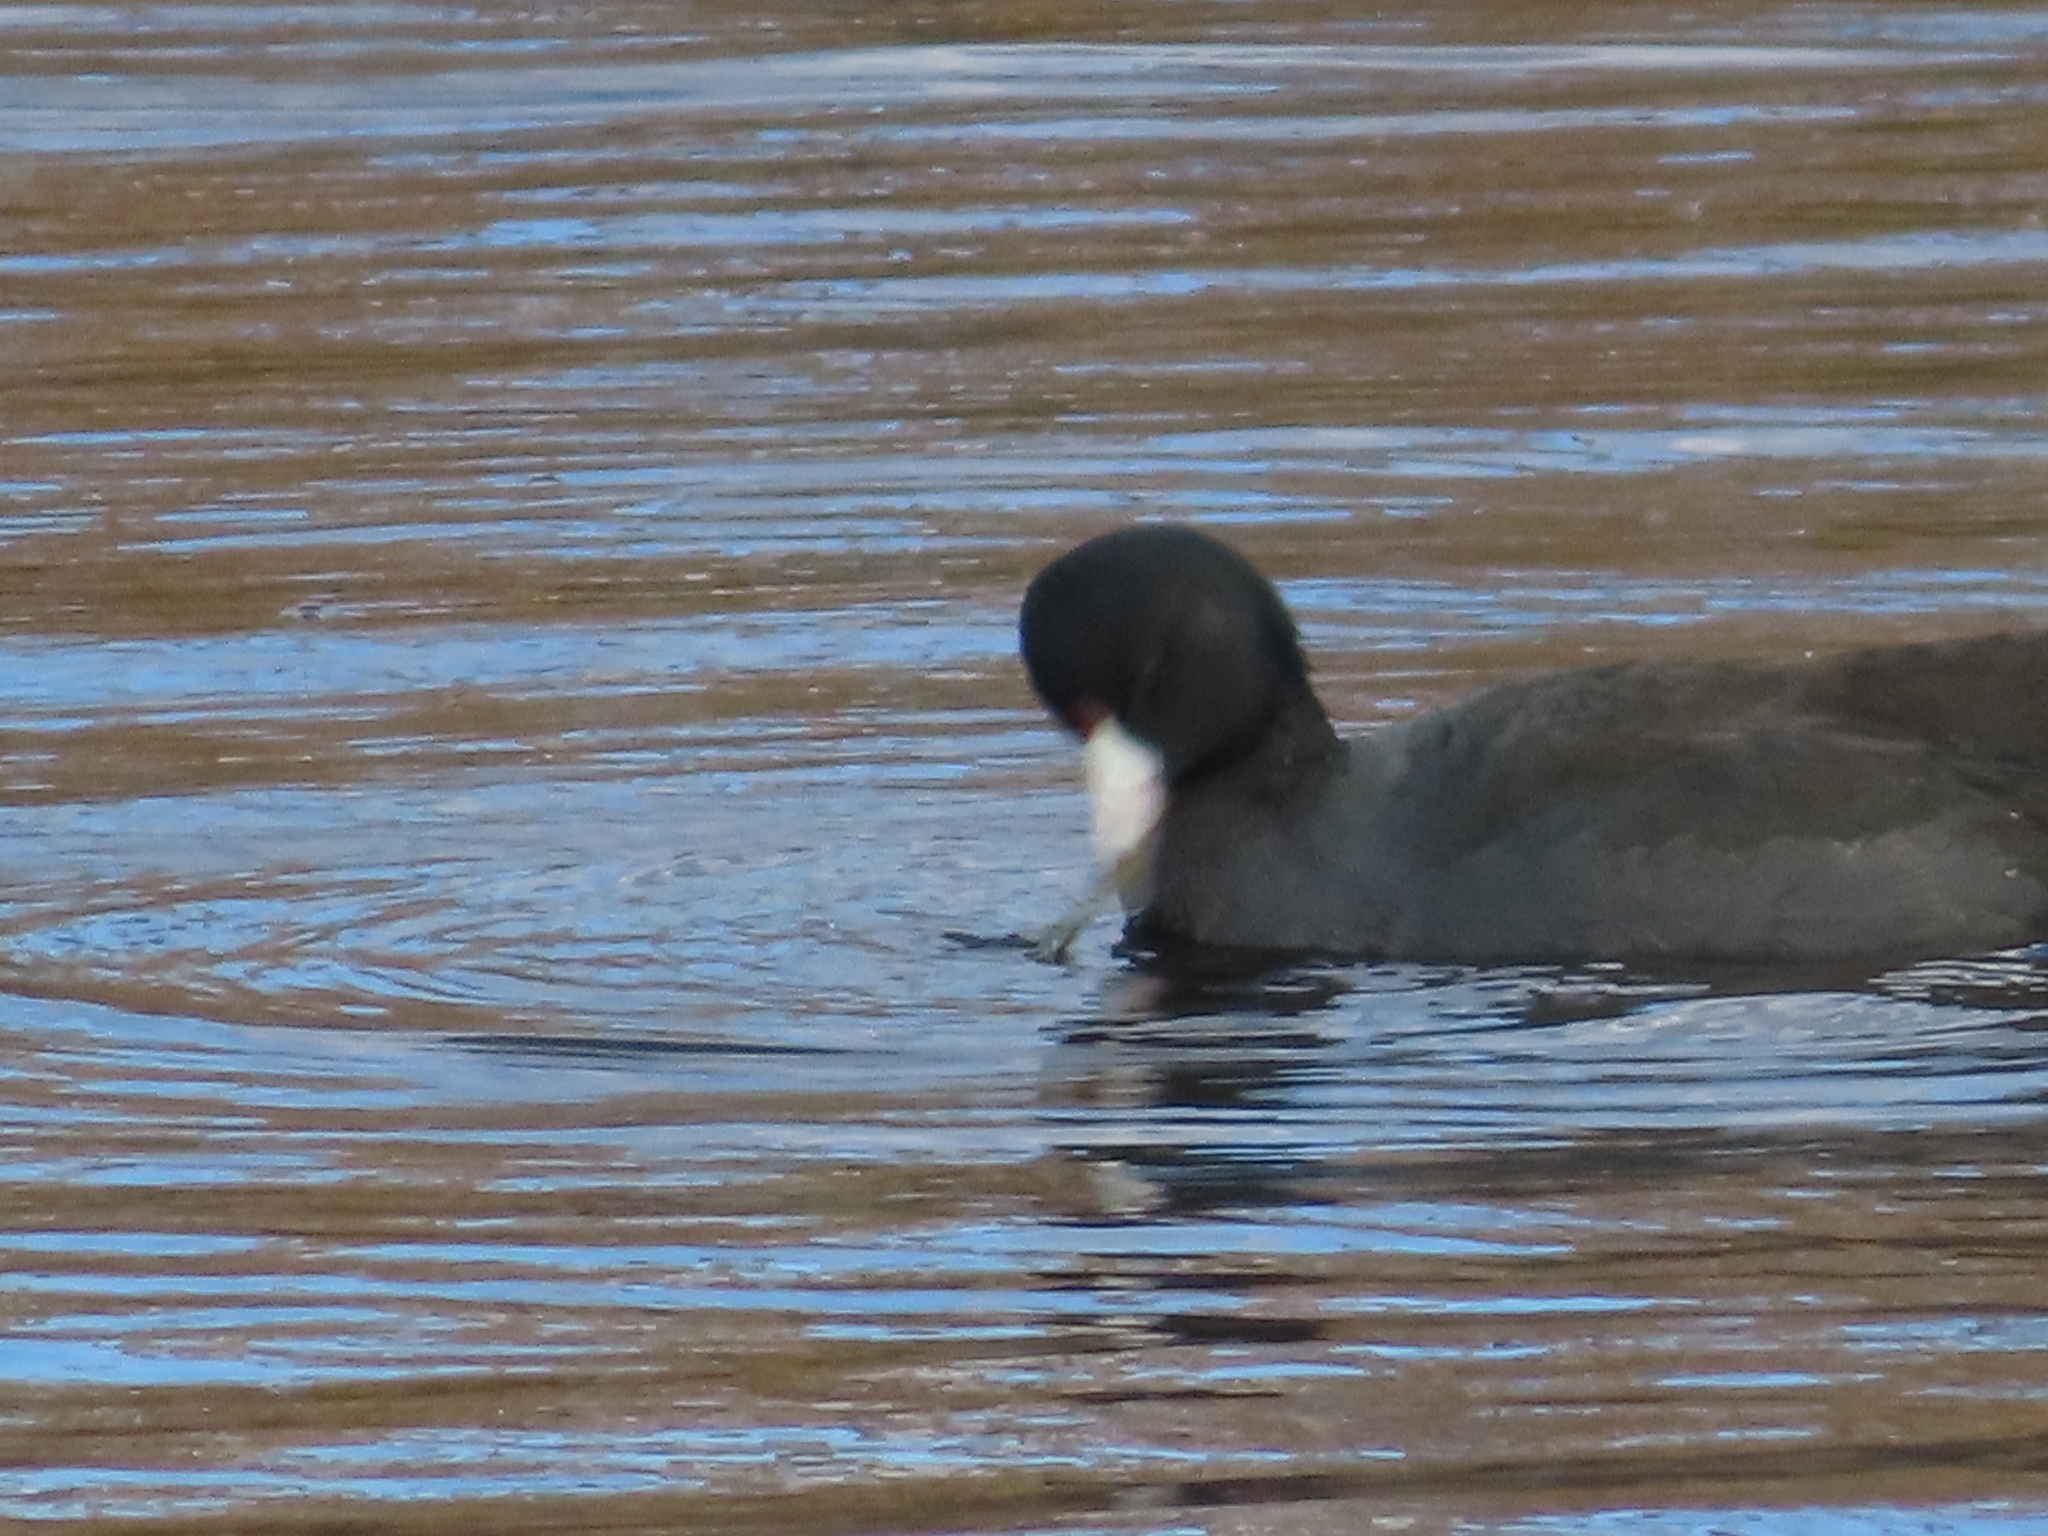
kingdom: Animalia
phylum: Chordata
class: Aves
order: Gruiformes
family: Rallidae
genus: Fulica
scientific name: Fulica americana
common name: American coot
